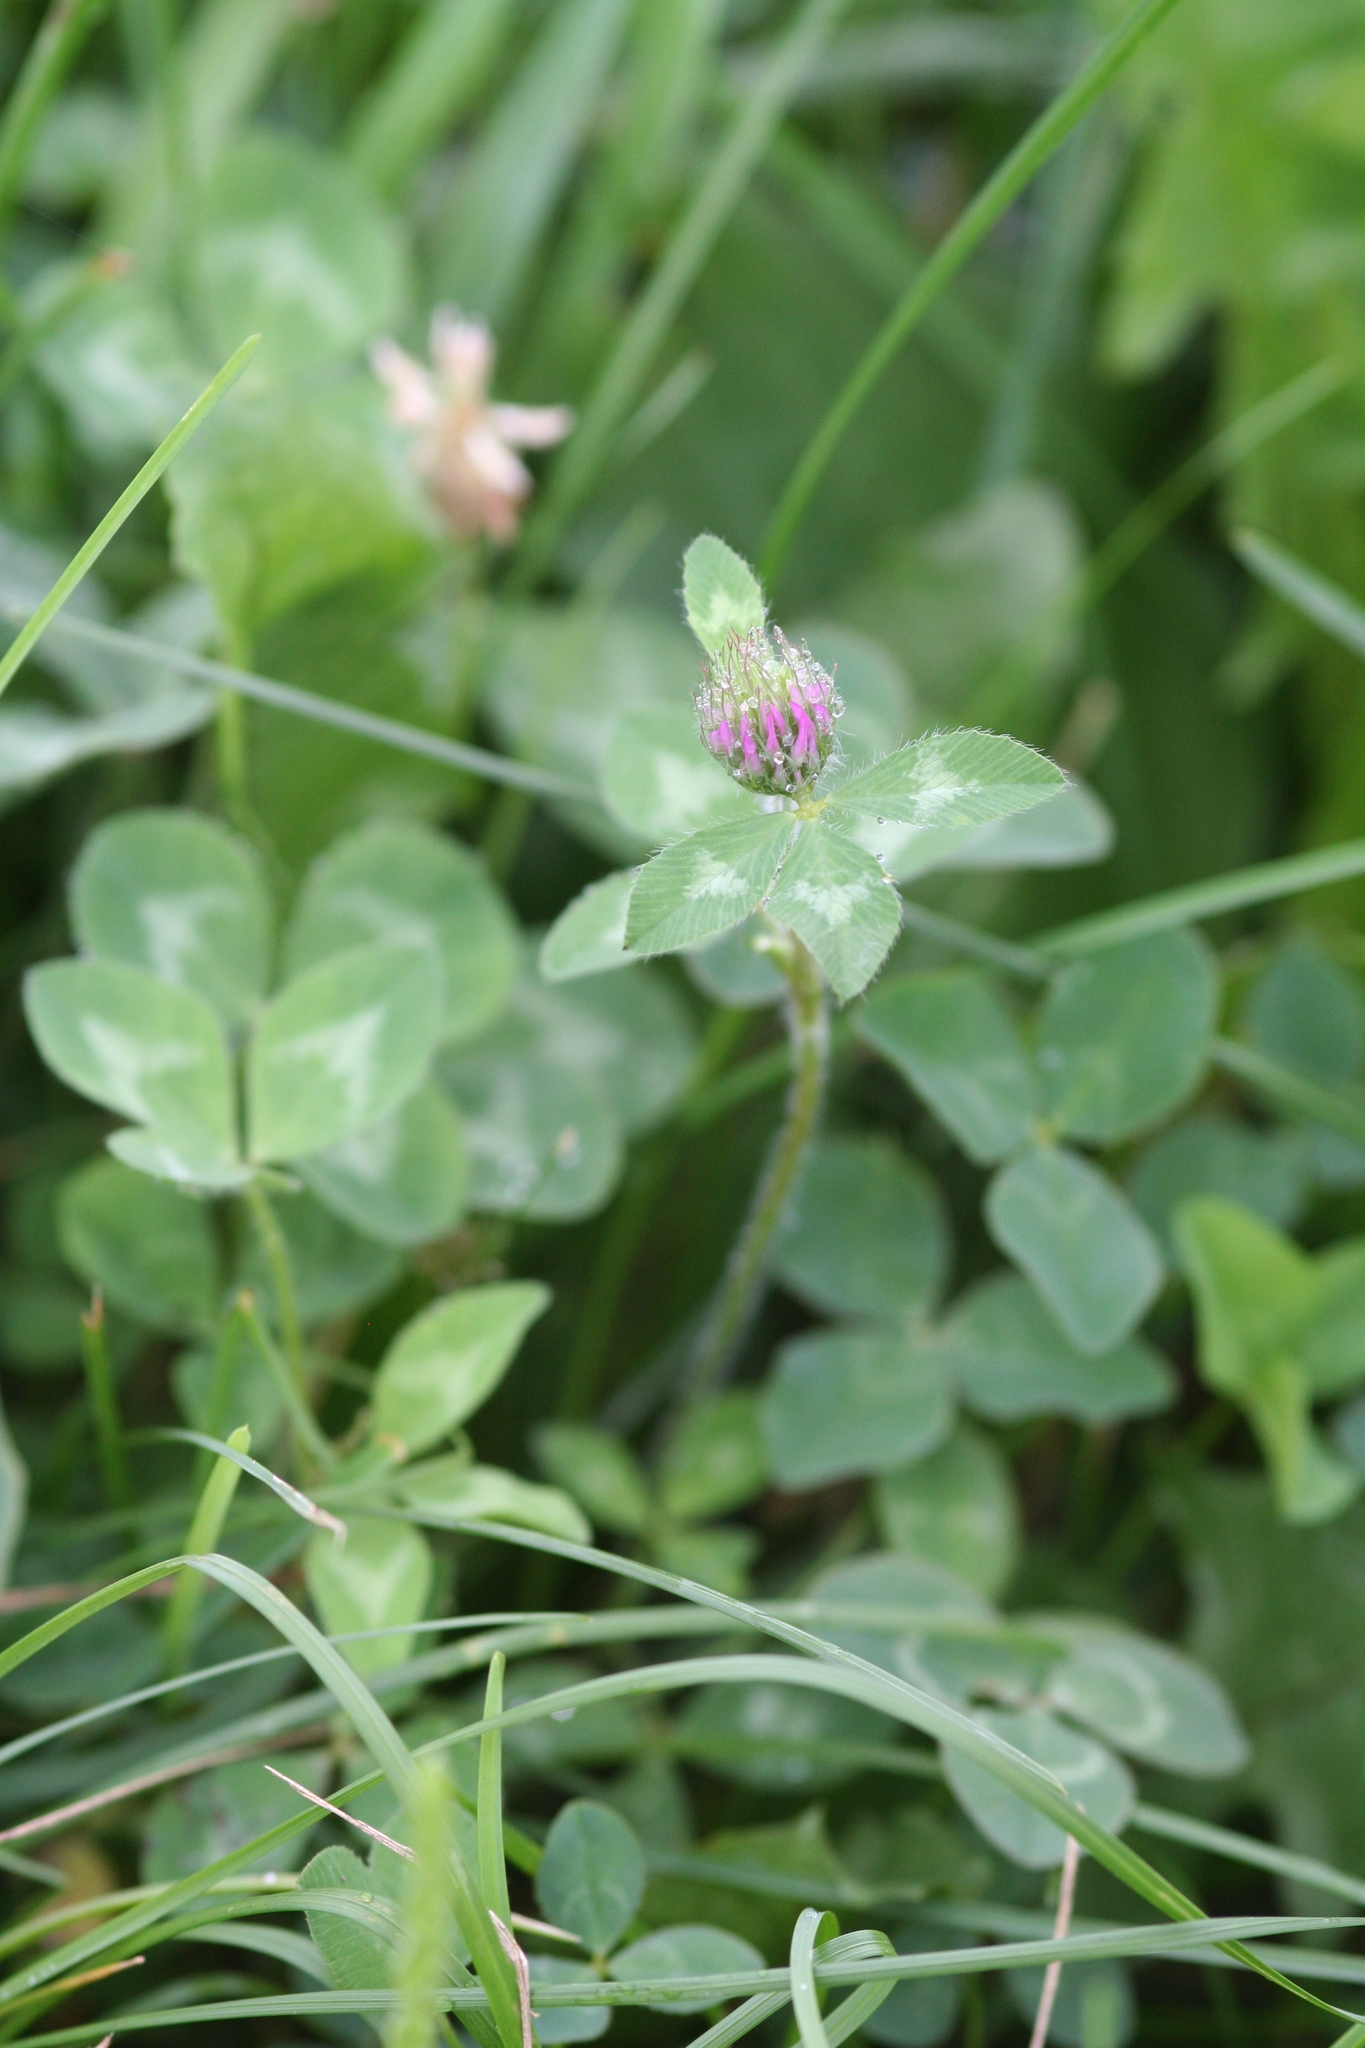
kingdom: Plantae
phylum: Tracheophyta
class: Magnoliopsida
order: Fabales
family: Fabaceae
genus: Trifolium
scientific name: Trifolium pratense
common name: Red clover
